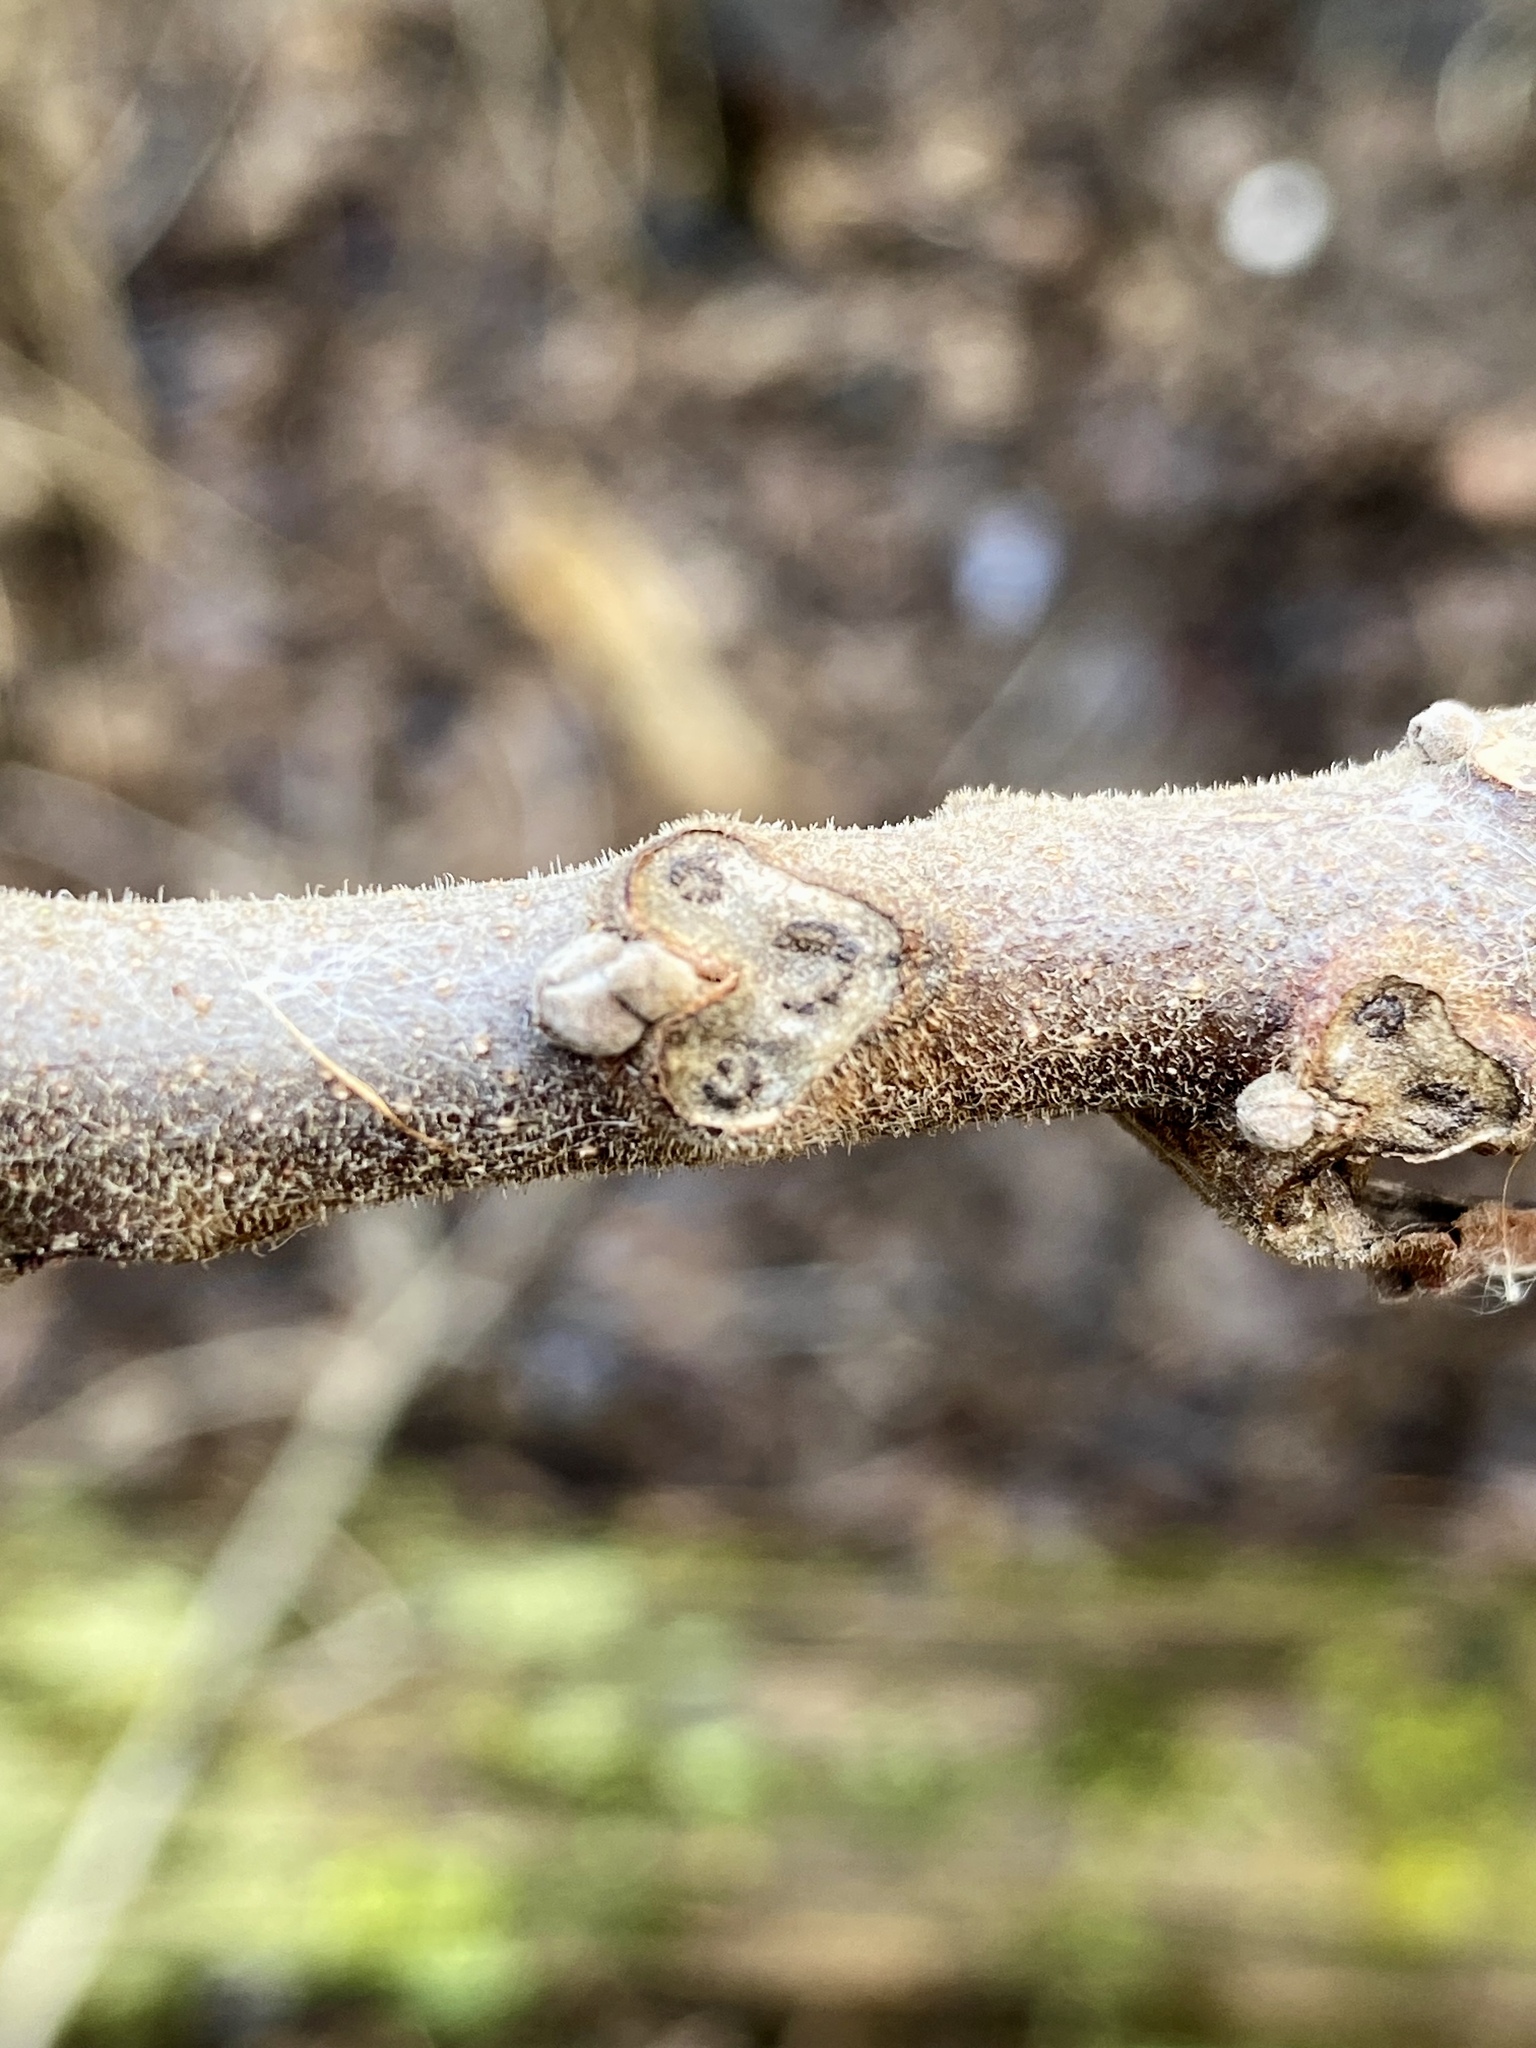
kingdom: Plantae
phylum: Tracheophyta
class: Magnoliopsida
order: Fagales
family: Juglandaceae
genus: Juglans
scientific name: Juglans nigra
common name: Black walnut
